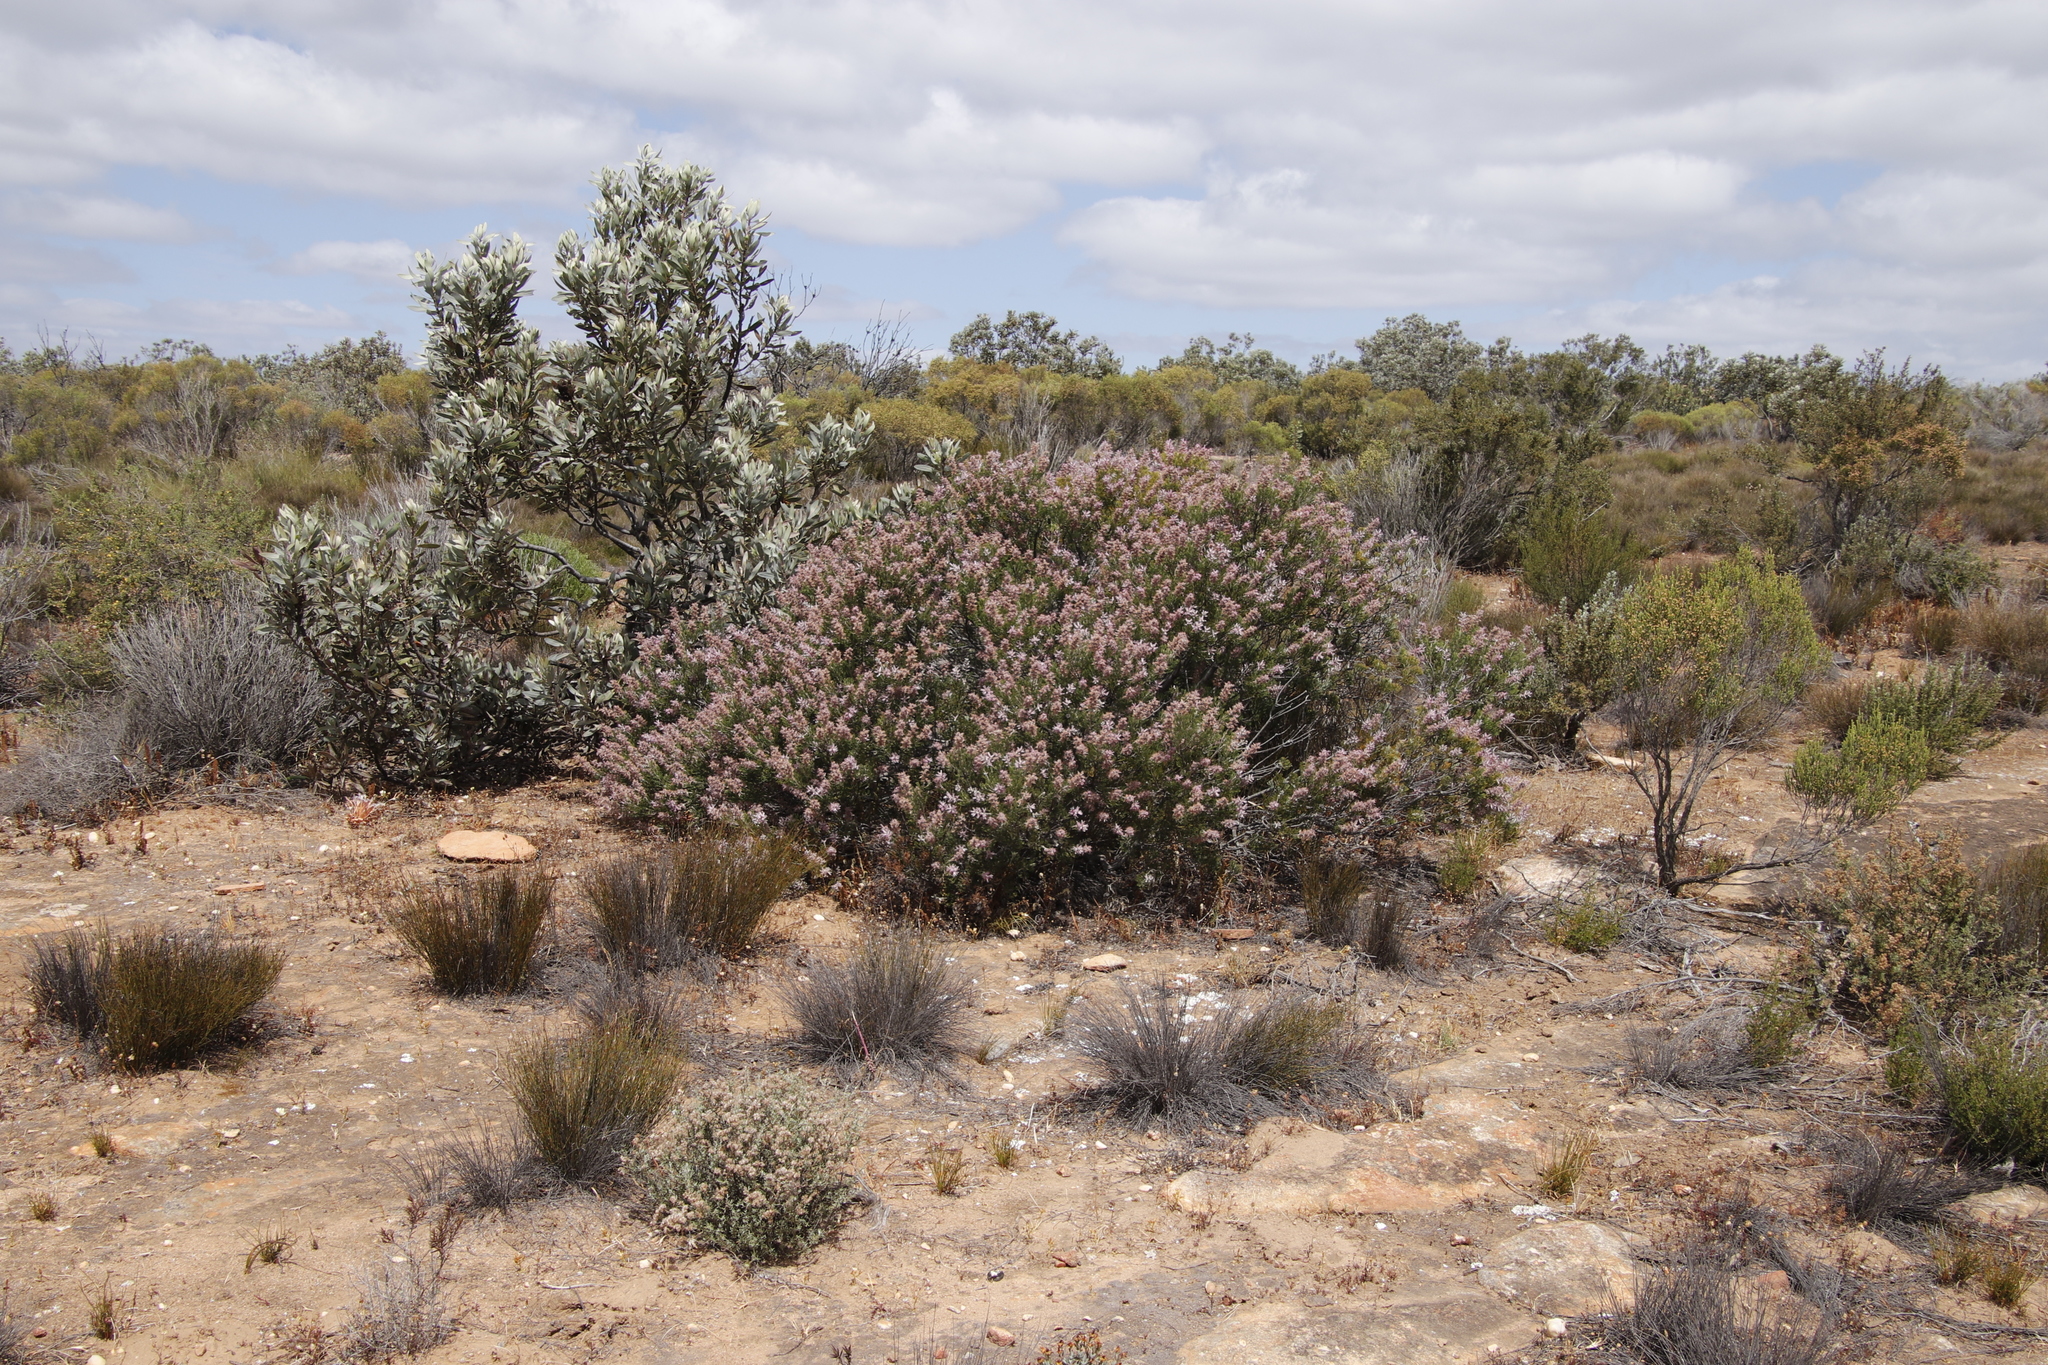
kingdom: Plantae
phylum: Tracheophyta
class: Magnoliopsida
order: Proteales
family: Proteaceae
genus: Paranomus
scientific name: Paranomus bracteolaris
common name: Bokkeveld tree sceptre
